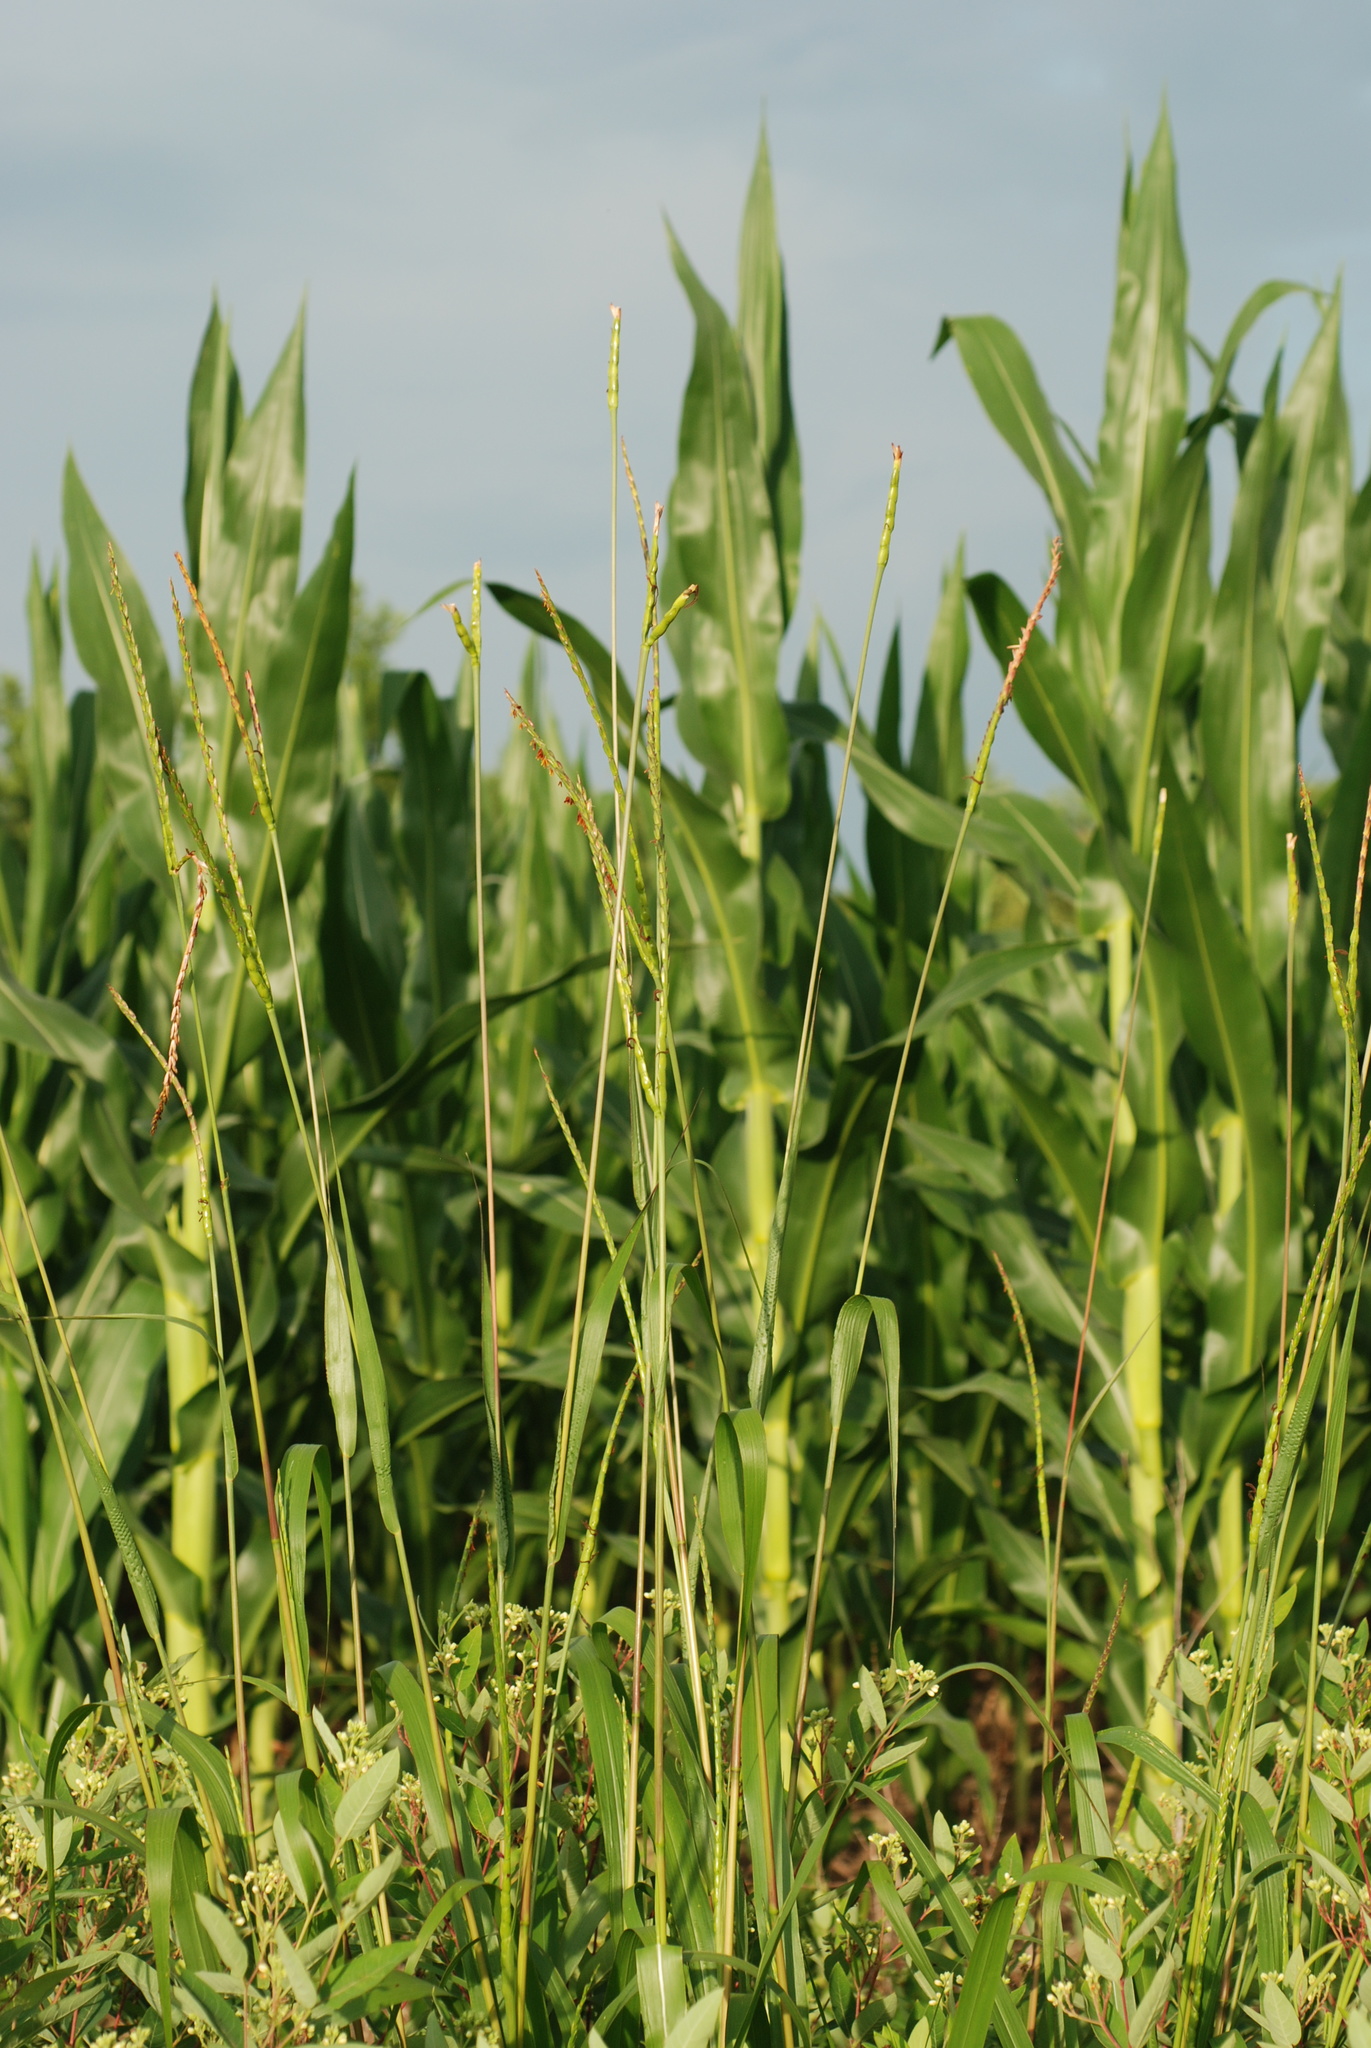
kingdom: Plantae
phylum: Tracheophyta
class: Liliopsida
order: Poales
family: Poaceae
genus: Tripsacum
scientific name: Tripsacum dactyloides
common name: Buffalo-grass
